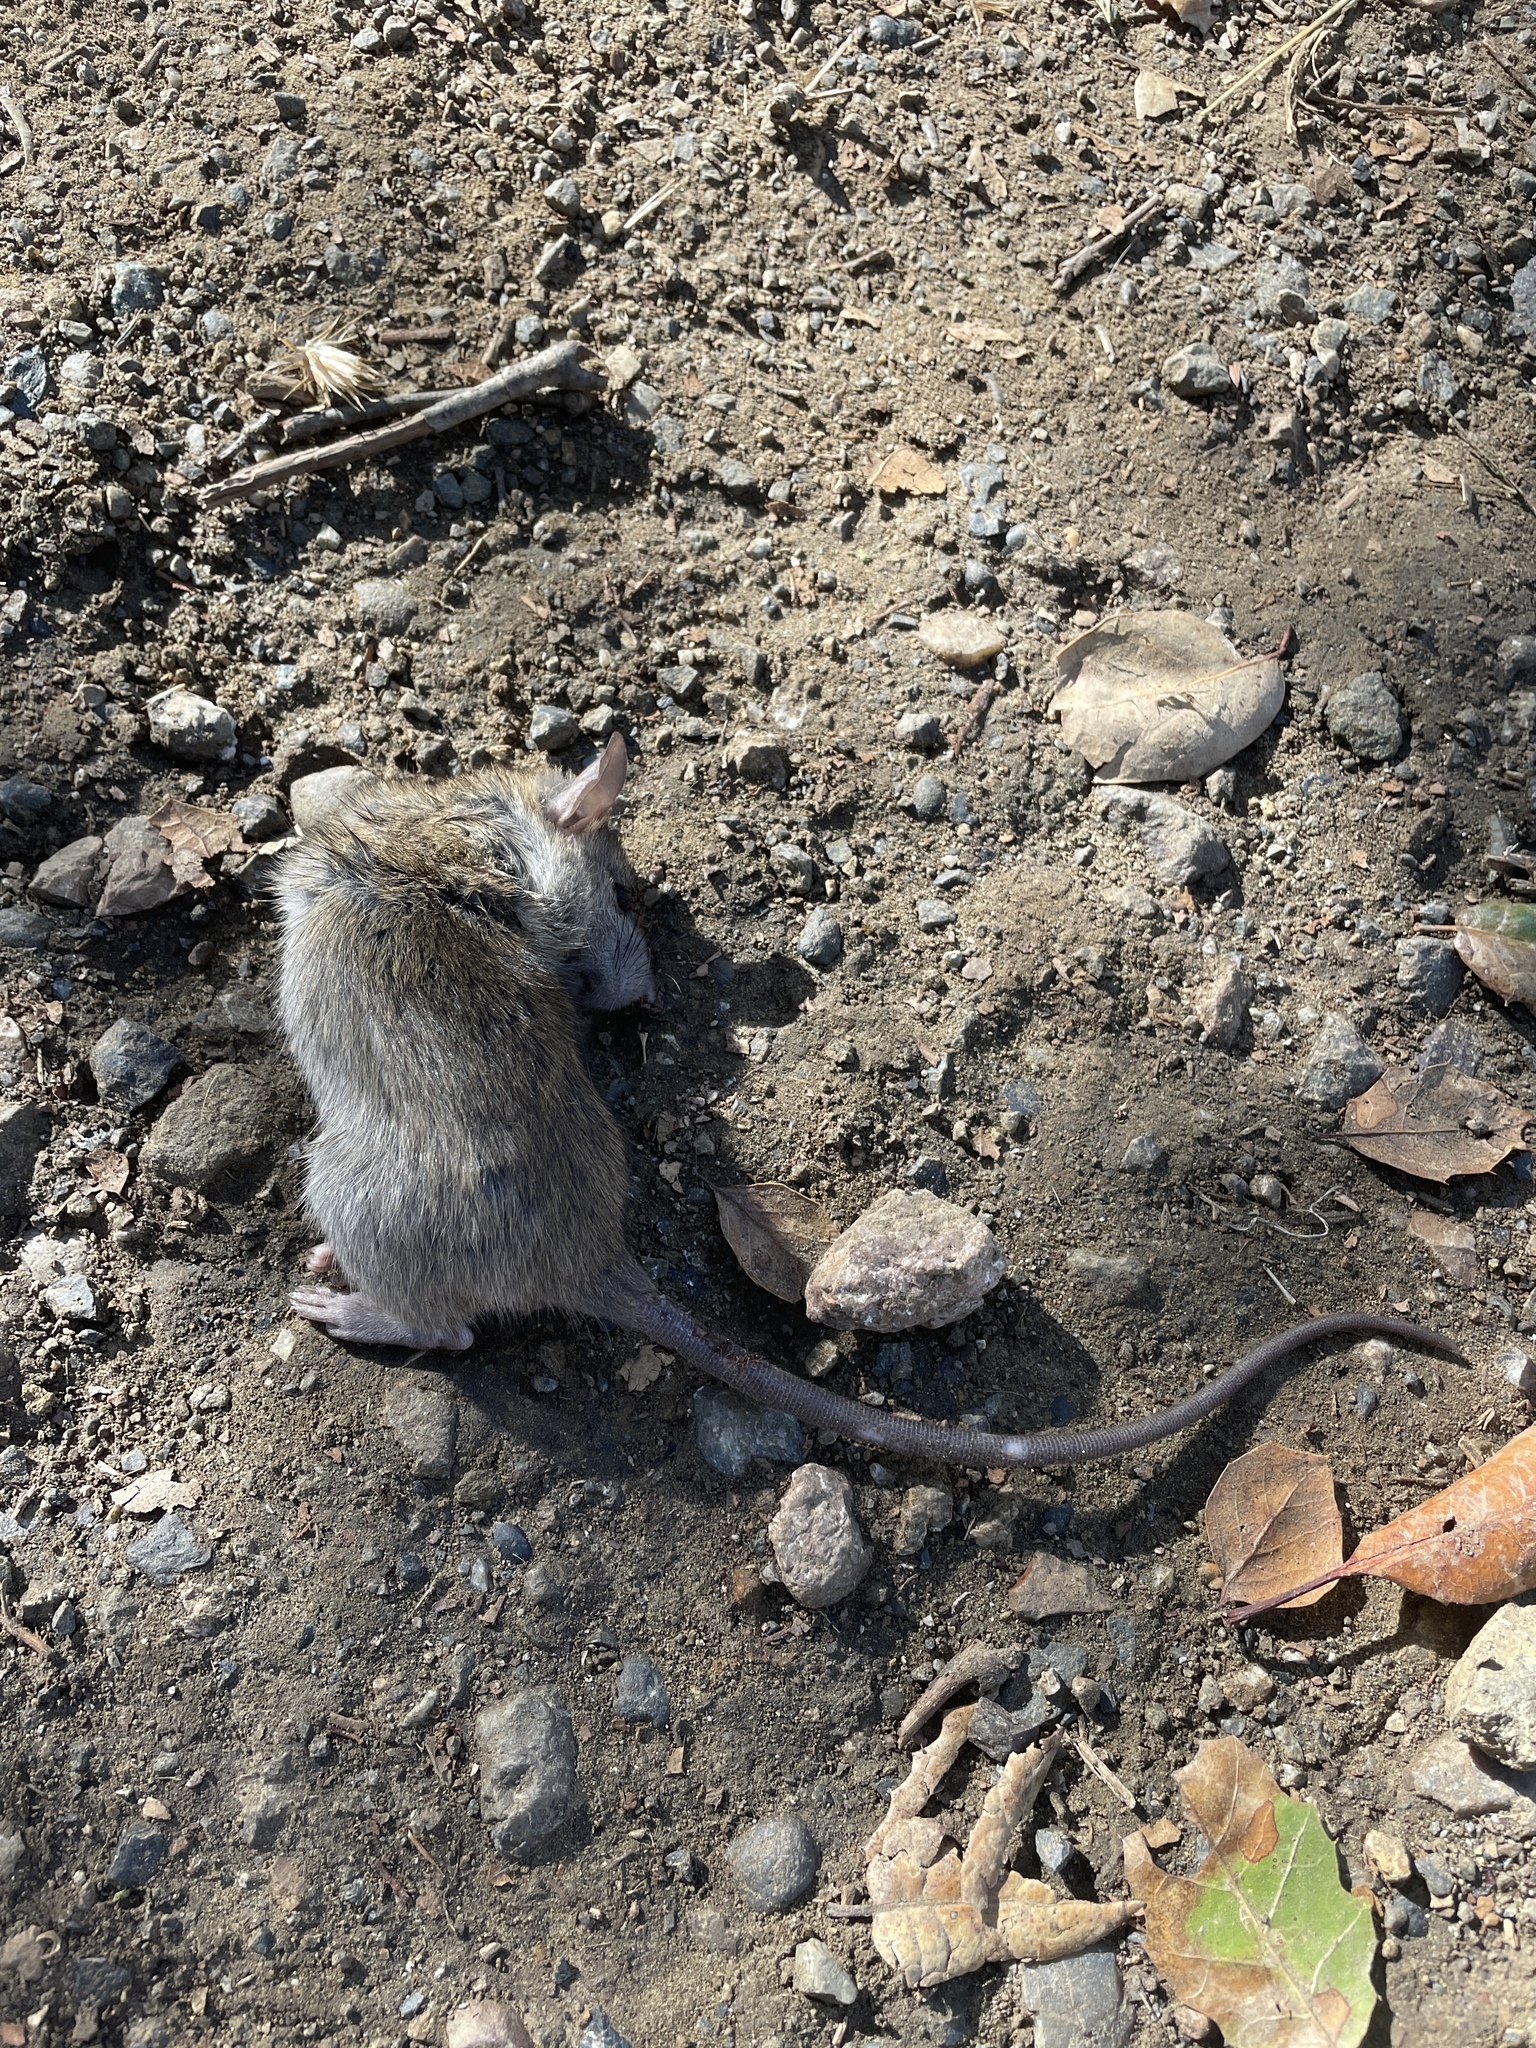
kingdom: Animalia
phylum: Chordata
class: Mammalia
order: Rodentia
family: Muridae
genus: Rattus
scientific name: Rattus rattus
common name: Black rat
